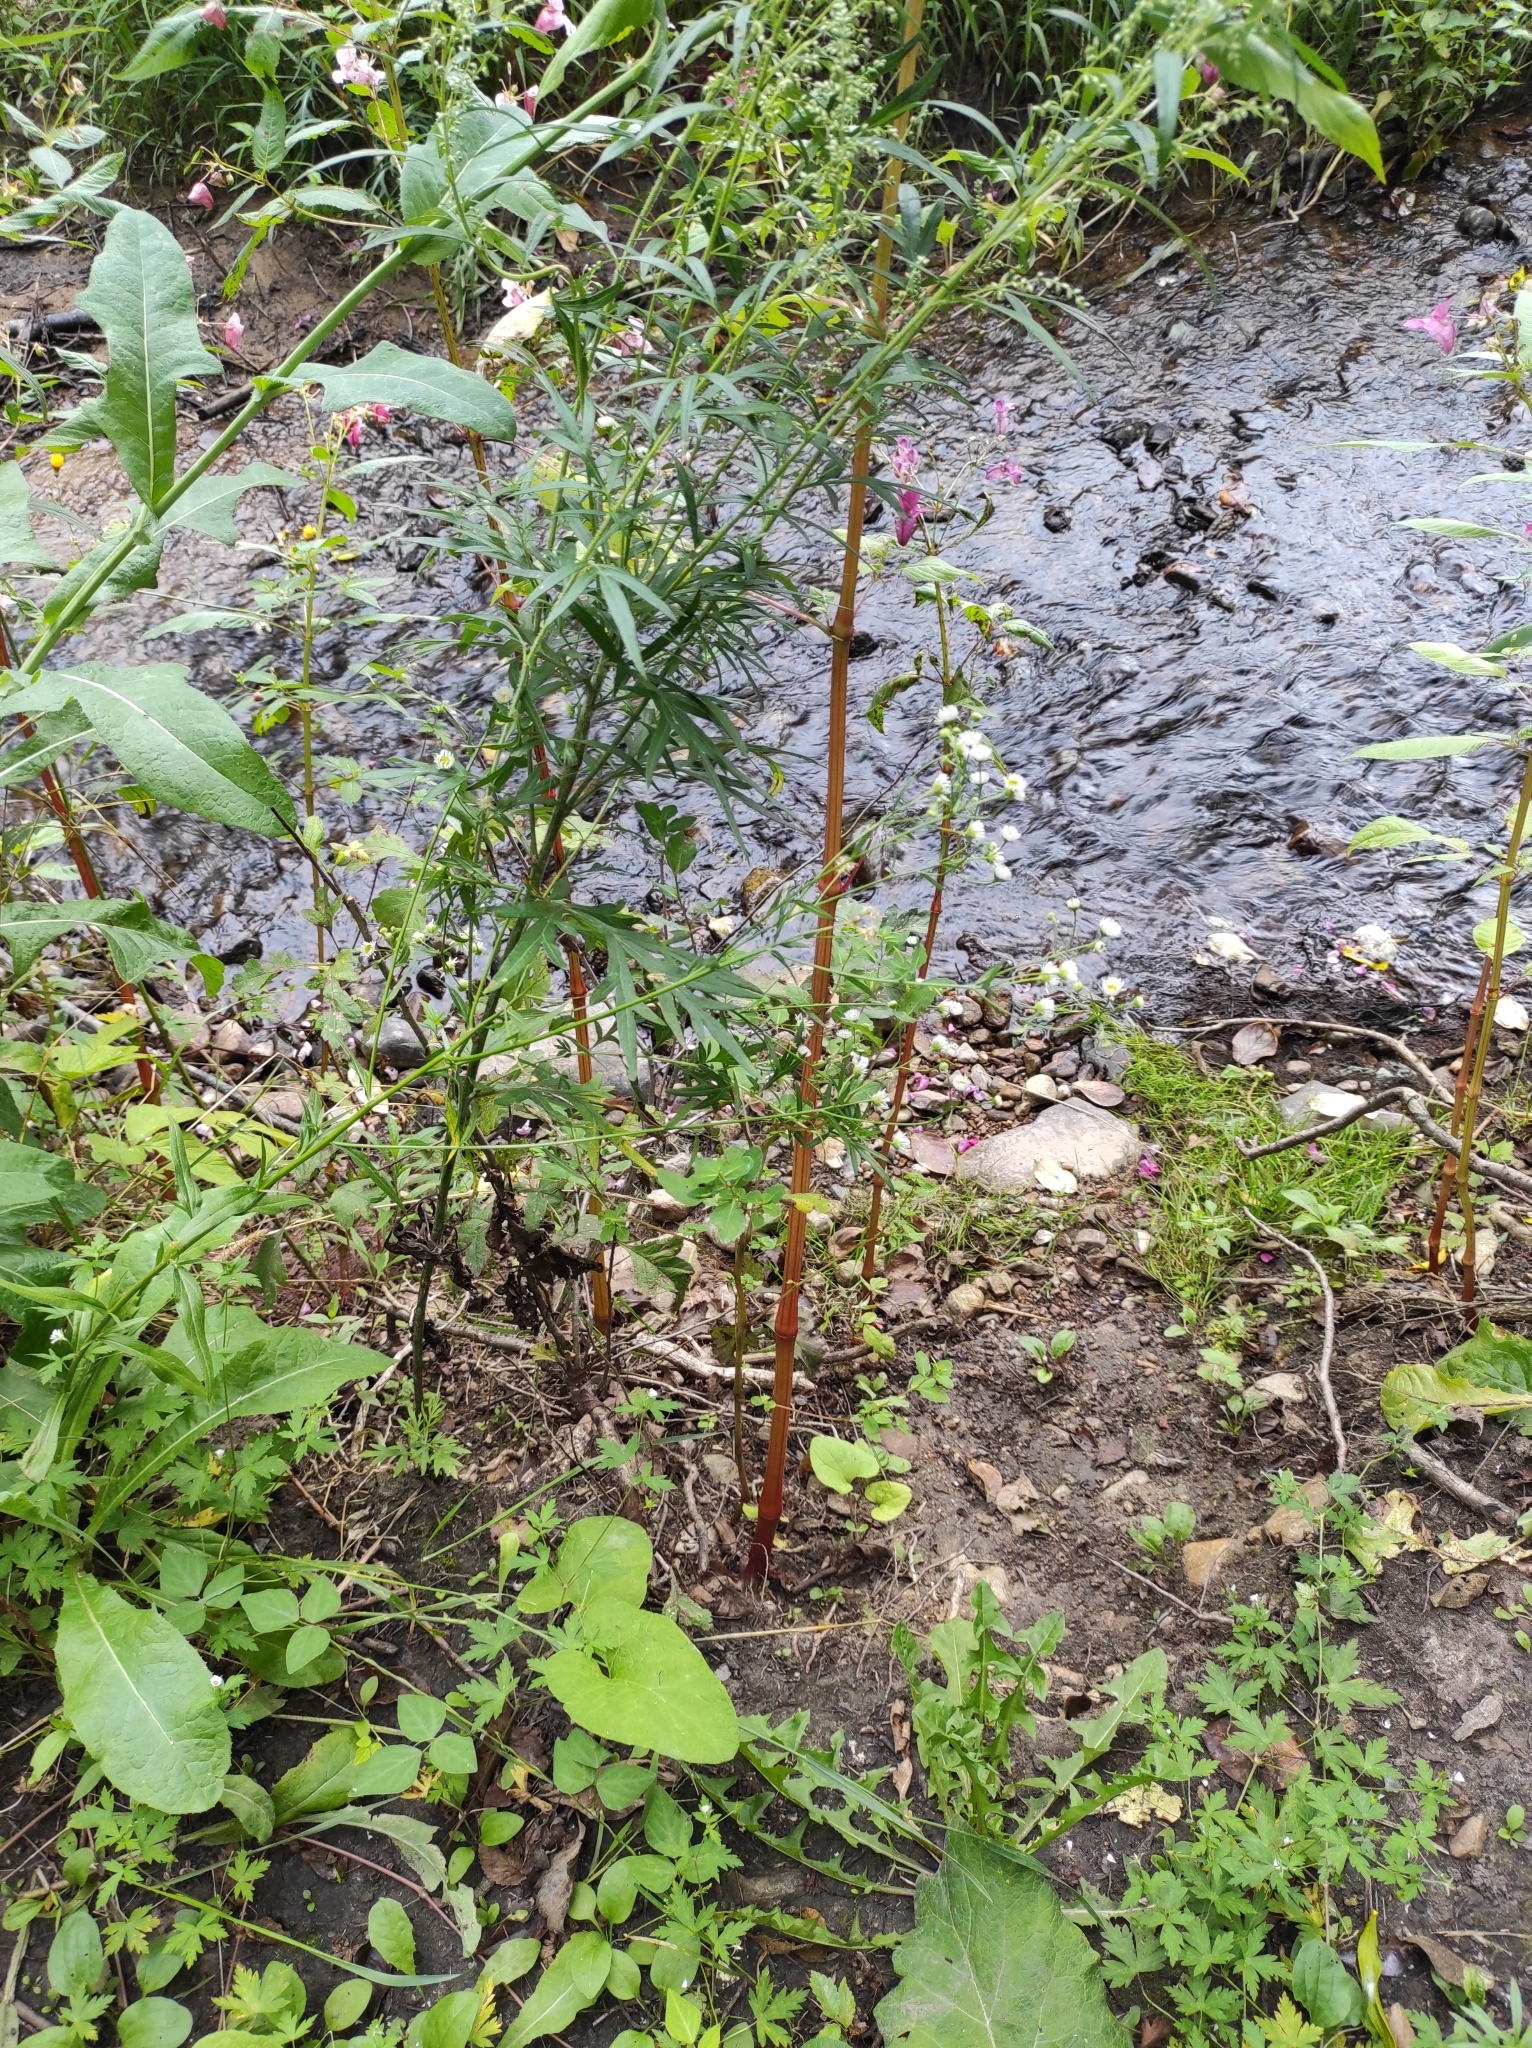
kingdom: Plantae
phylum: Tracheophyta
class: Magnoliopsida
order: Asterales
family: Asteraceae
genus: Erigeron
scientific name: Erigeron strigosus
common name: Common eastern fleabane
